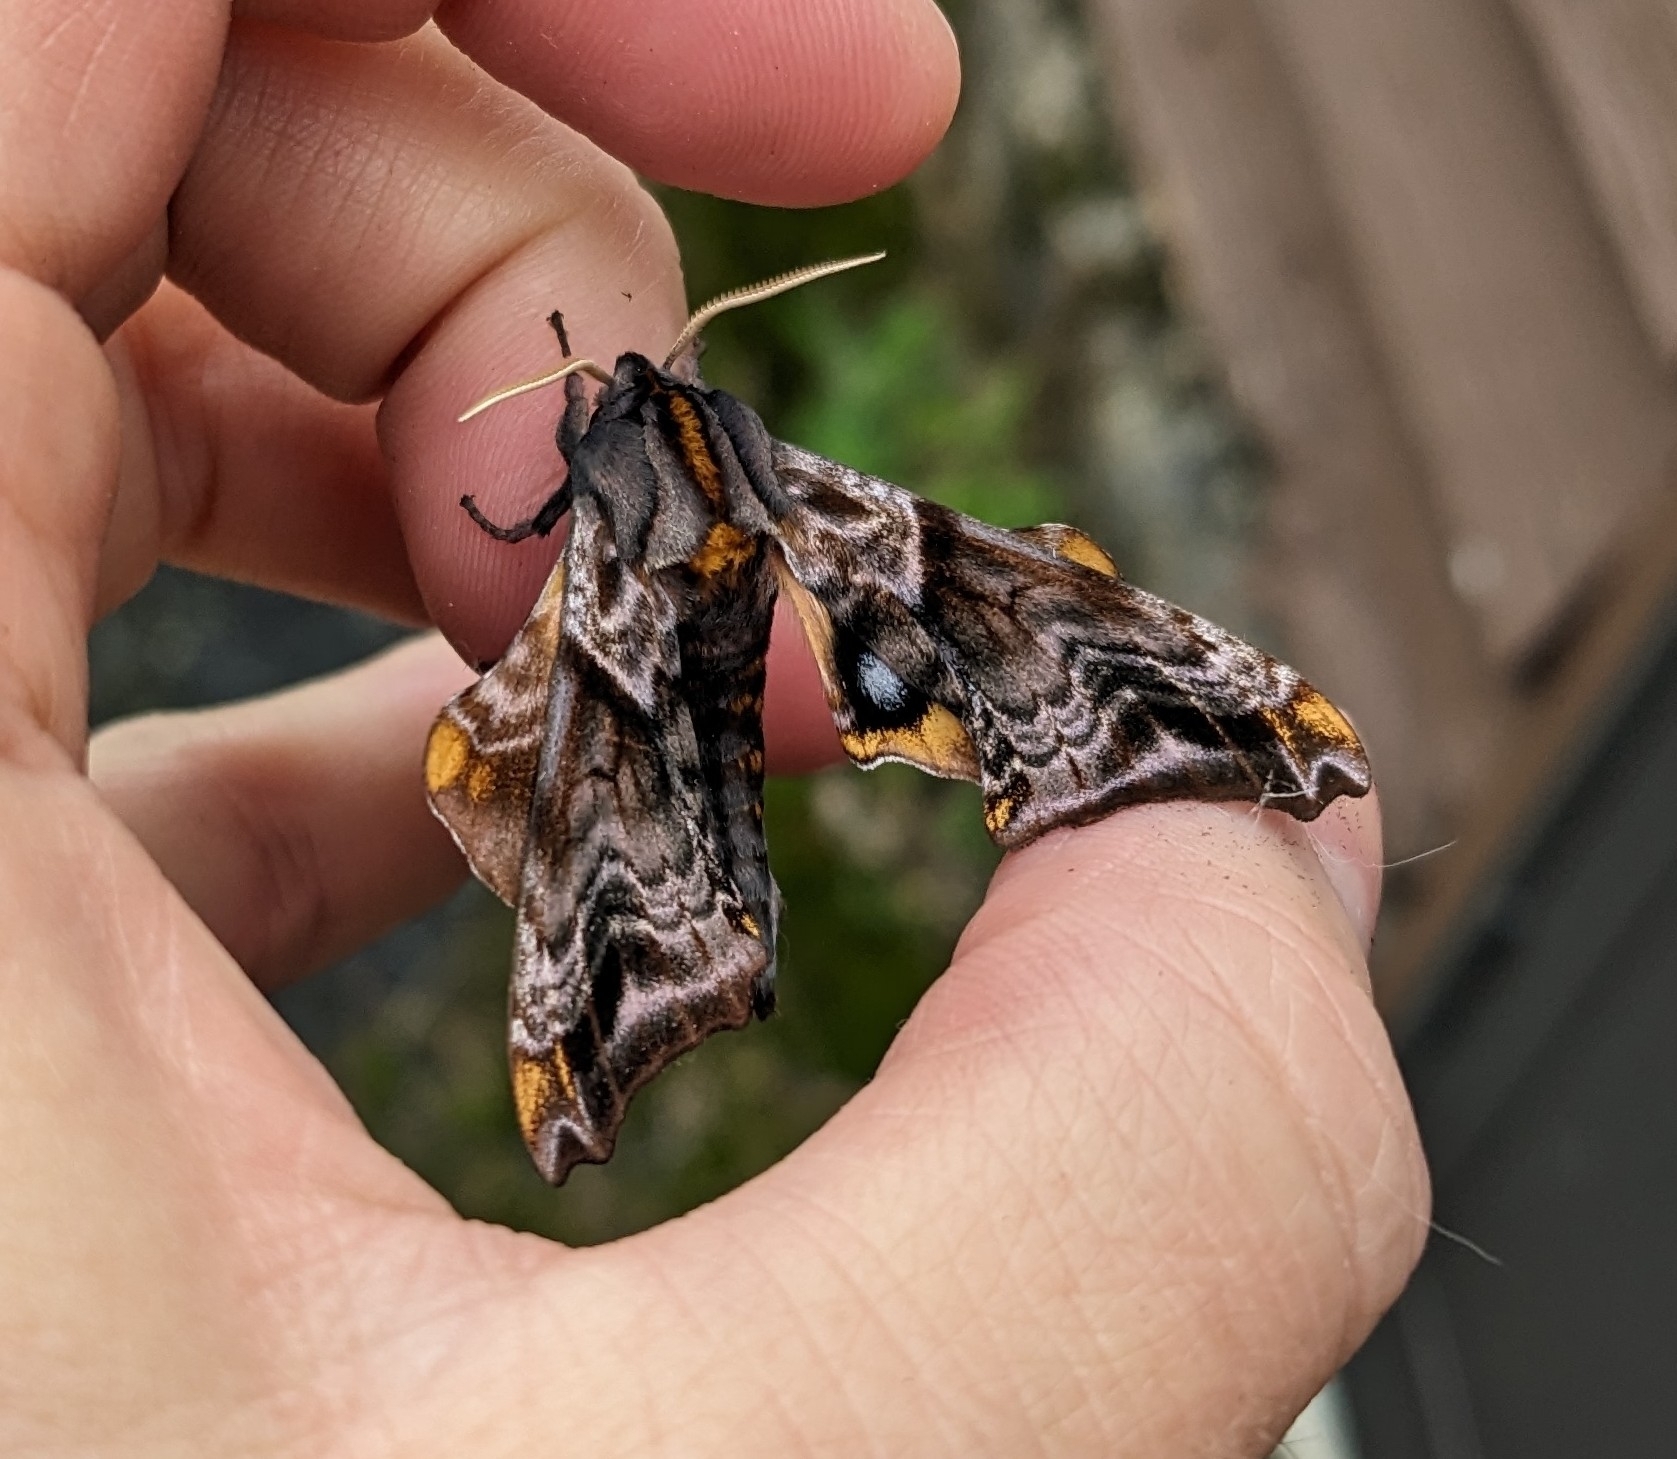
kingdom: Animalia
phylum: Arthropoda
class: Insecta
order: Lepidoptera
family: Sphingidae
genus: Paonias
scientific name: Paonias myops
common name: Small-eyed sphinx
